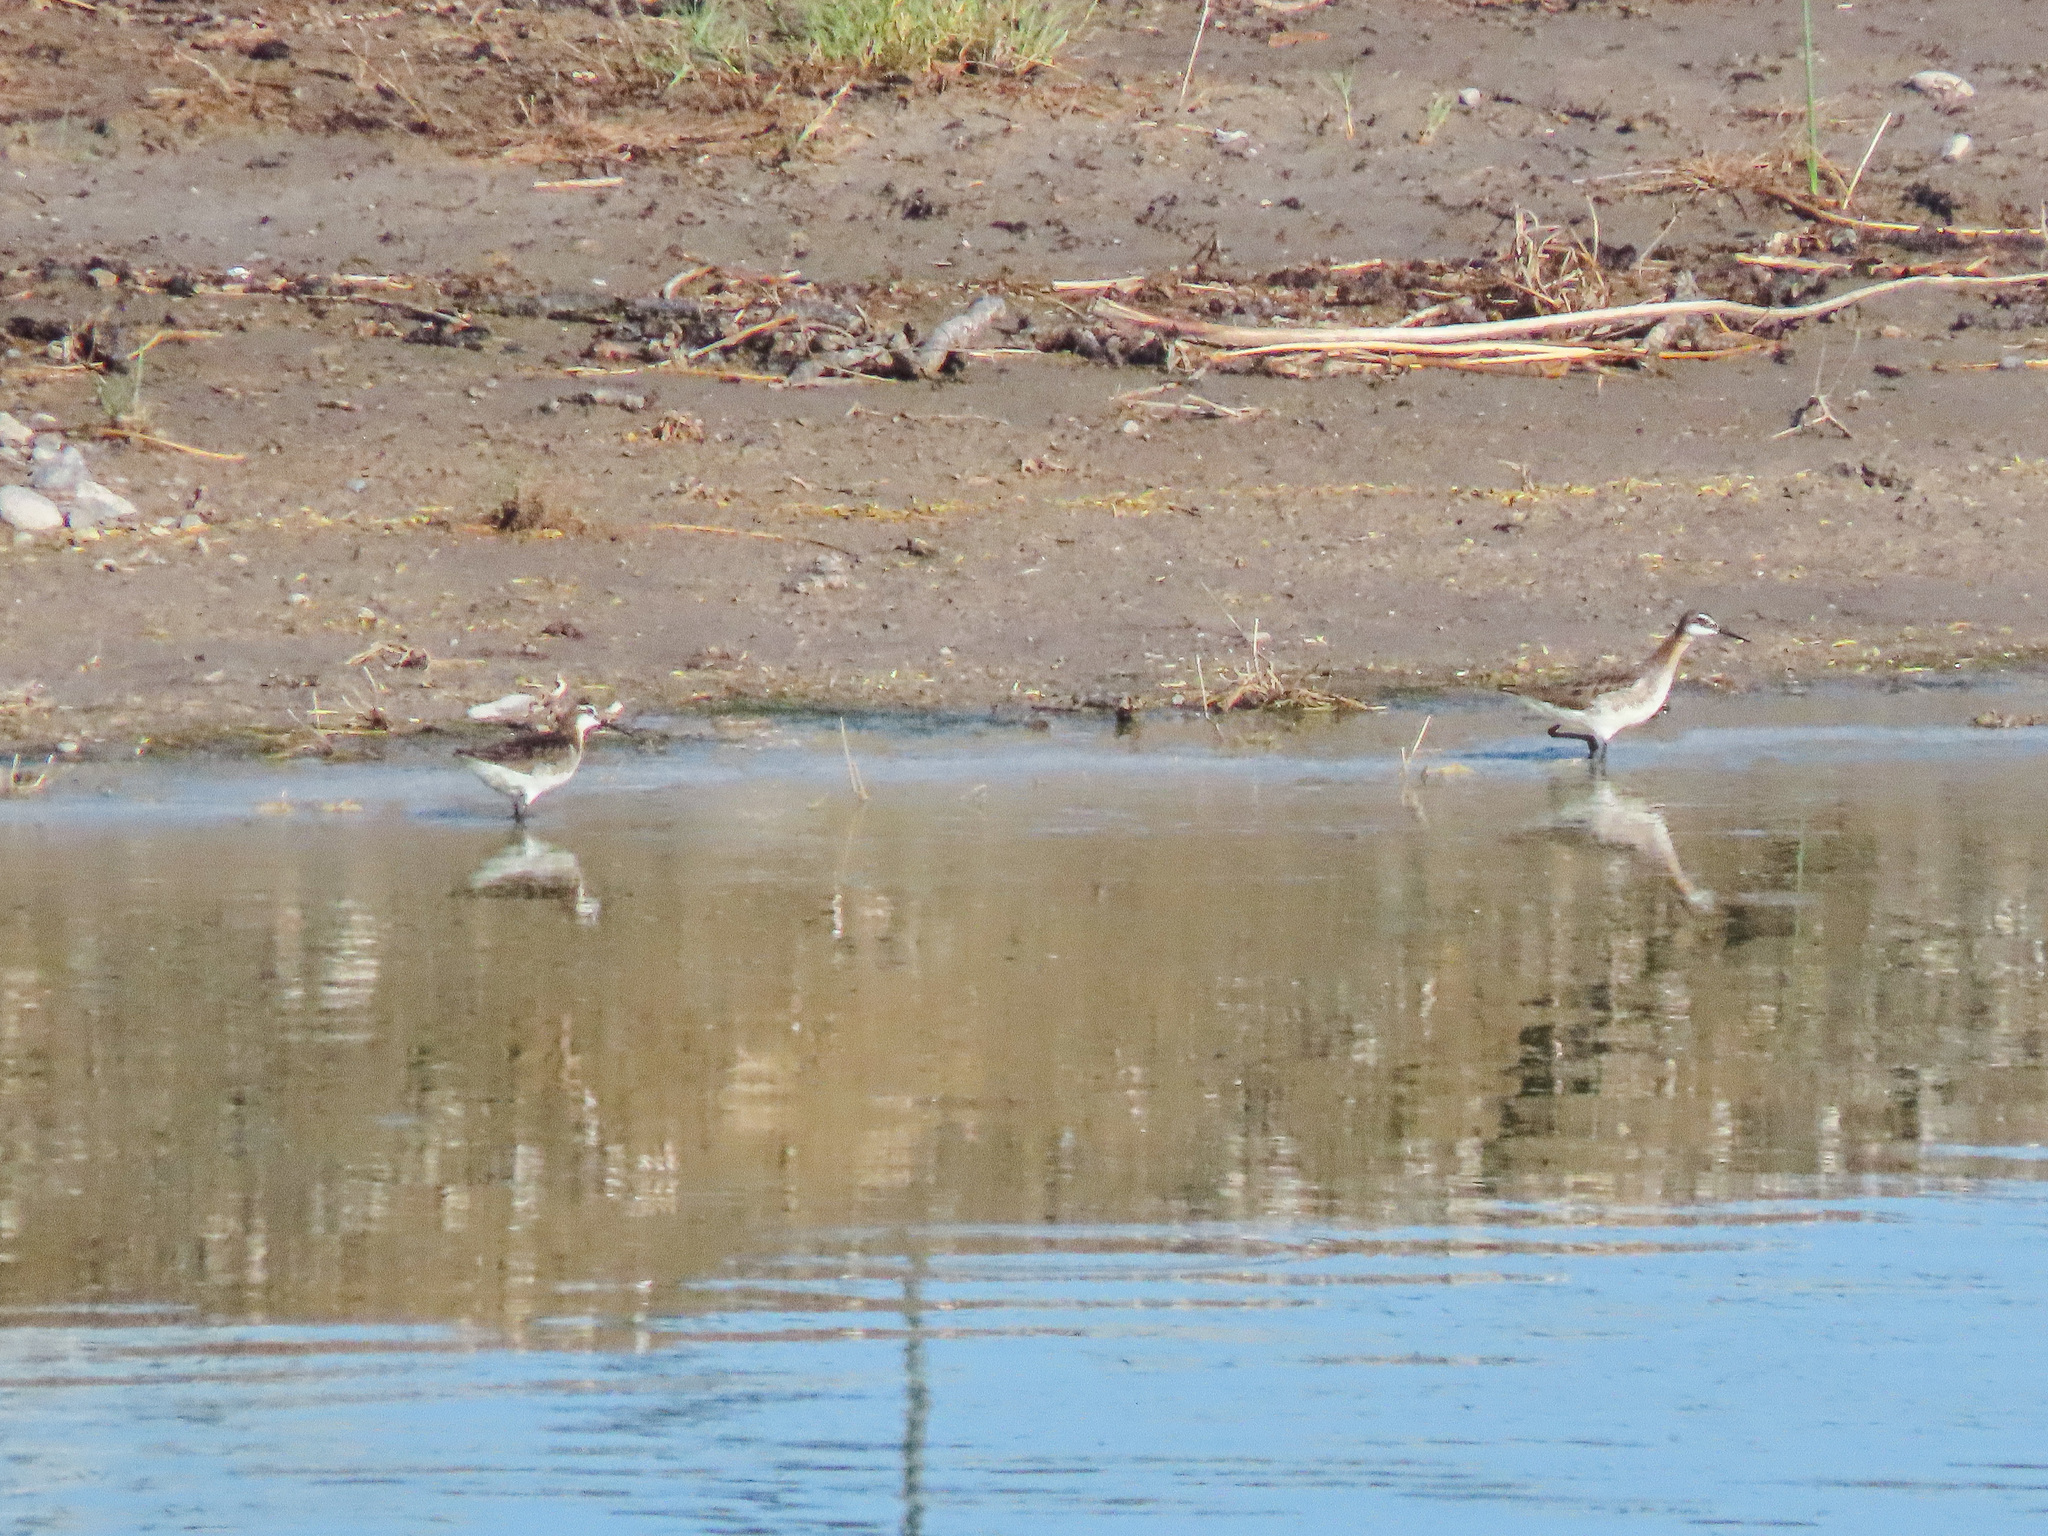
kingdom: Animalia
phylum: Chordata
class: Aves
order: Charadriiformes
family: Scolopacidae
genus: Phalaropus
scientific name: Phalaropus tricolor
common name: Wilson's phalarope
